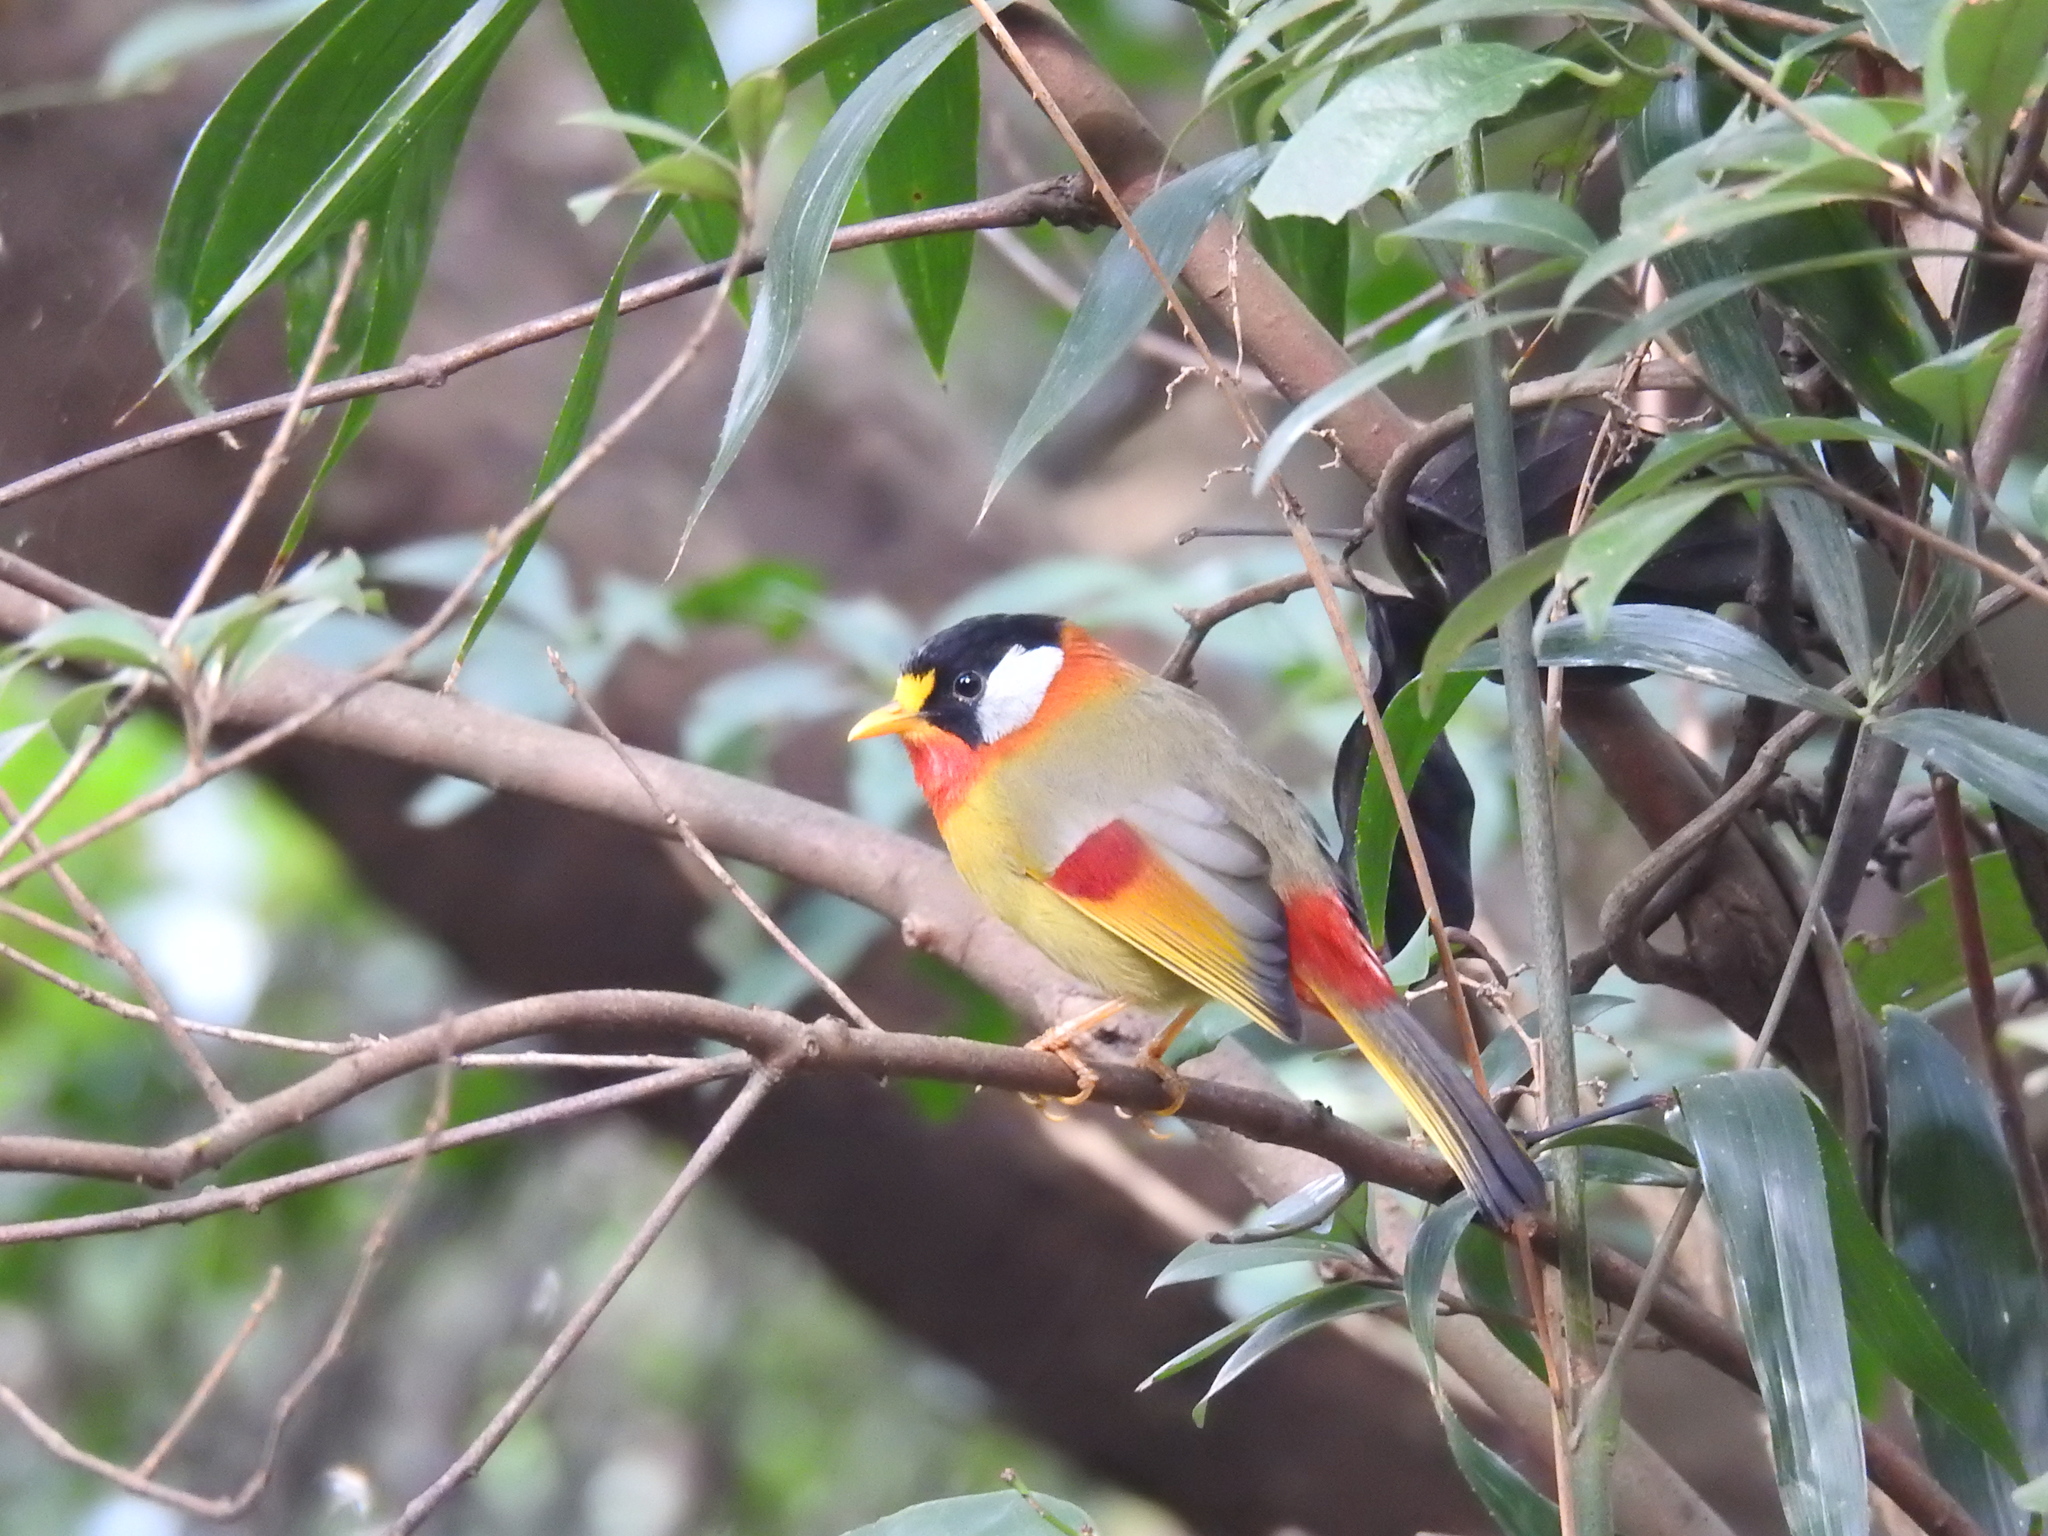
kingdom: Animalia
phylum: Chordata
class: Aves
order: Passeriformes
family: Leiothrichidae
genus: Leiothrix
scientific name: Leiothrix argentauris
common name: Silver-eared mesia
